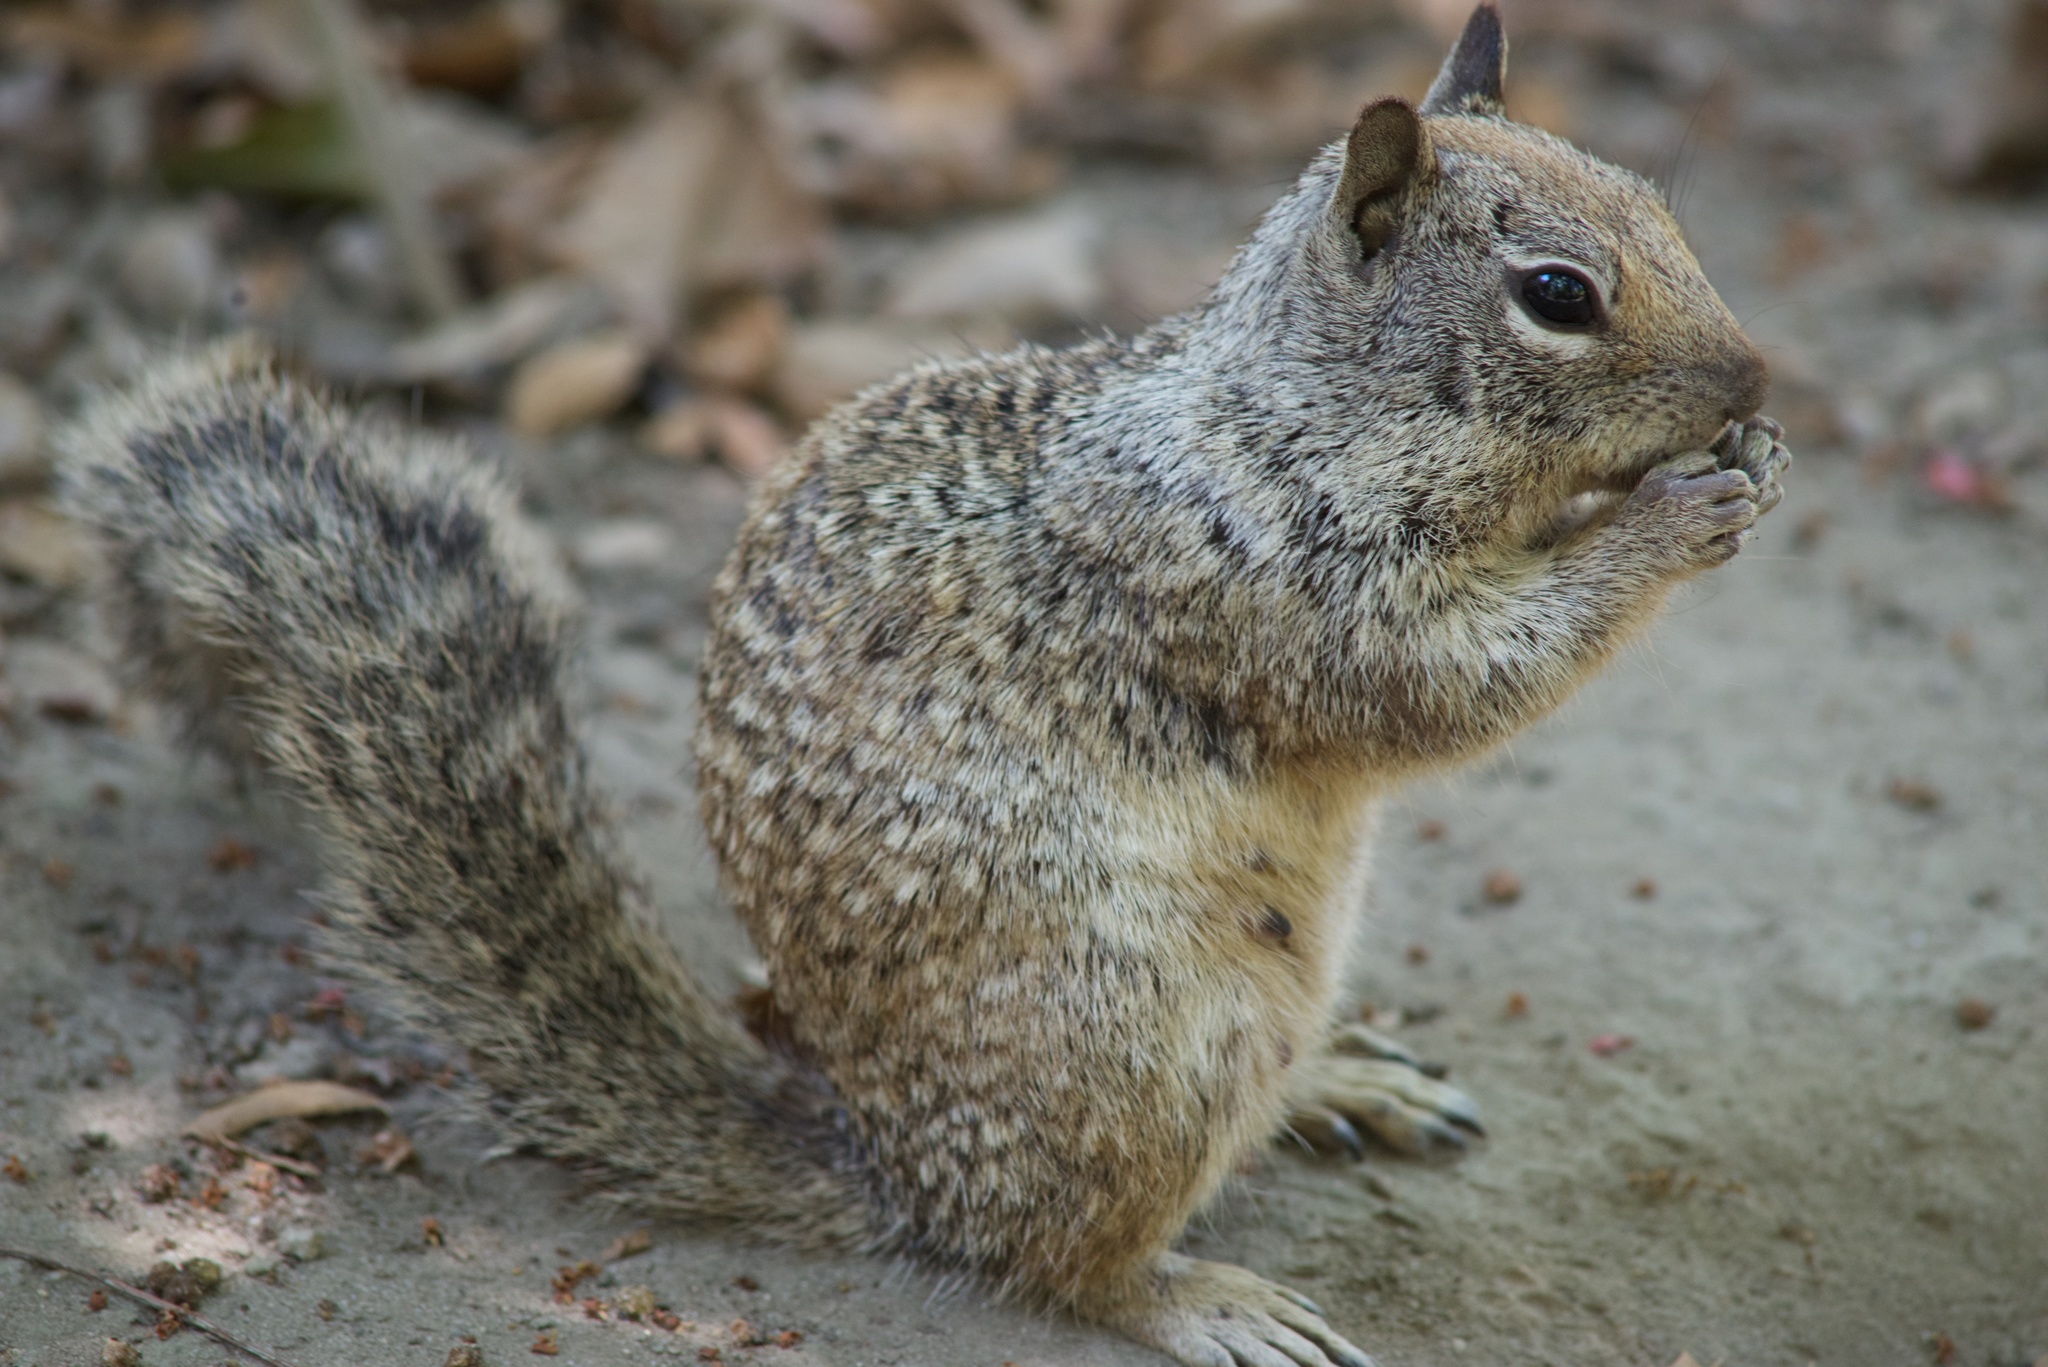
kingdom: Animalia
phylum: Chordata
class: Mammalia
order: Rodentia
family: Sciuridae
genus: Otospermophilus
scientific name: Otospermophilus beecheyi
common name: California ground squirrel
